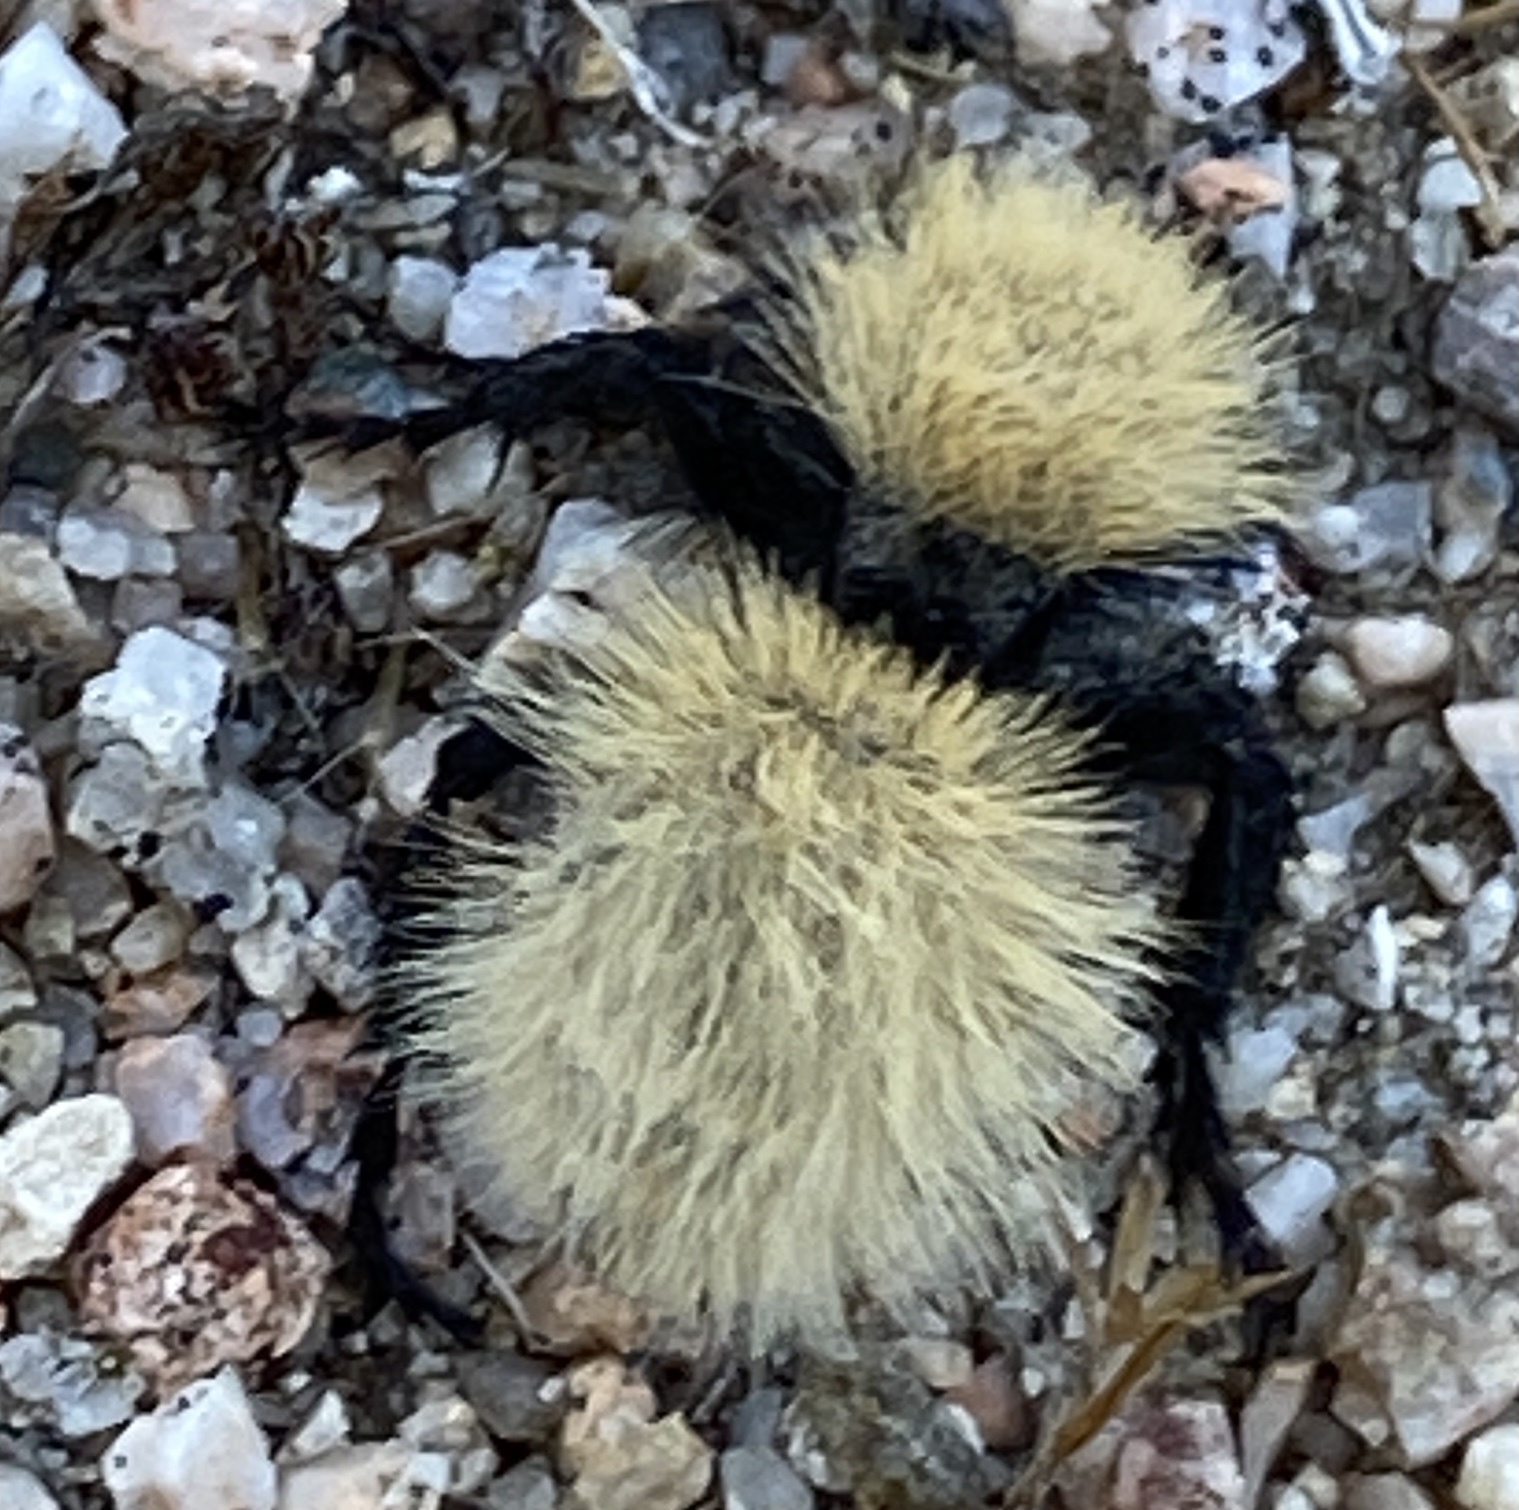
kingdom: Animalia
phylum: Arthropoda
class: Insecta
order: Hymenoptera
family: Mutillidae
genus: Dasymutilla
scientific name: Dasymutilla
